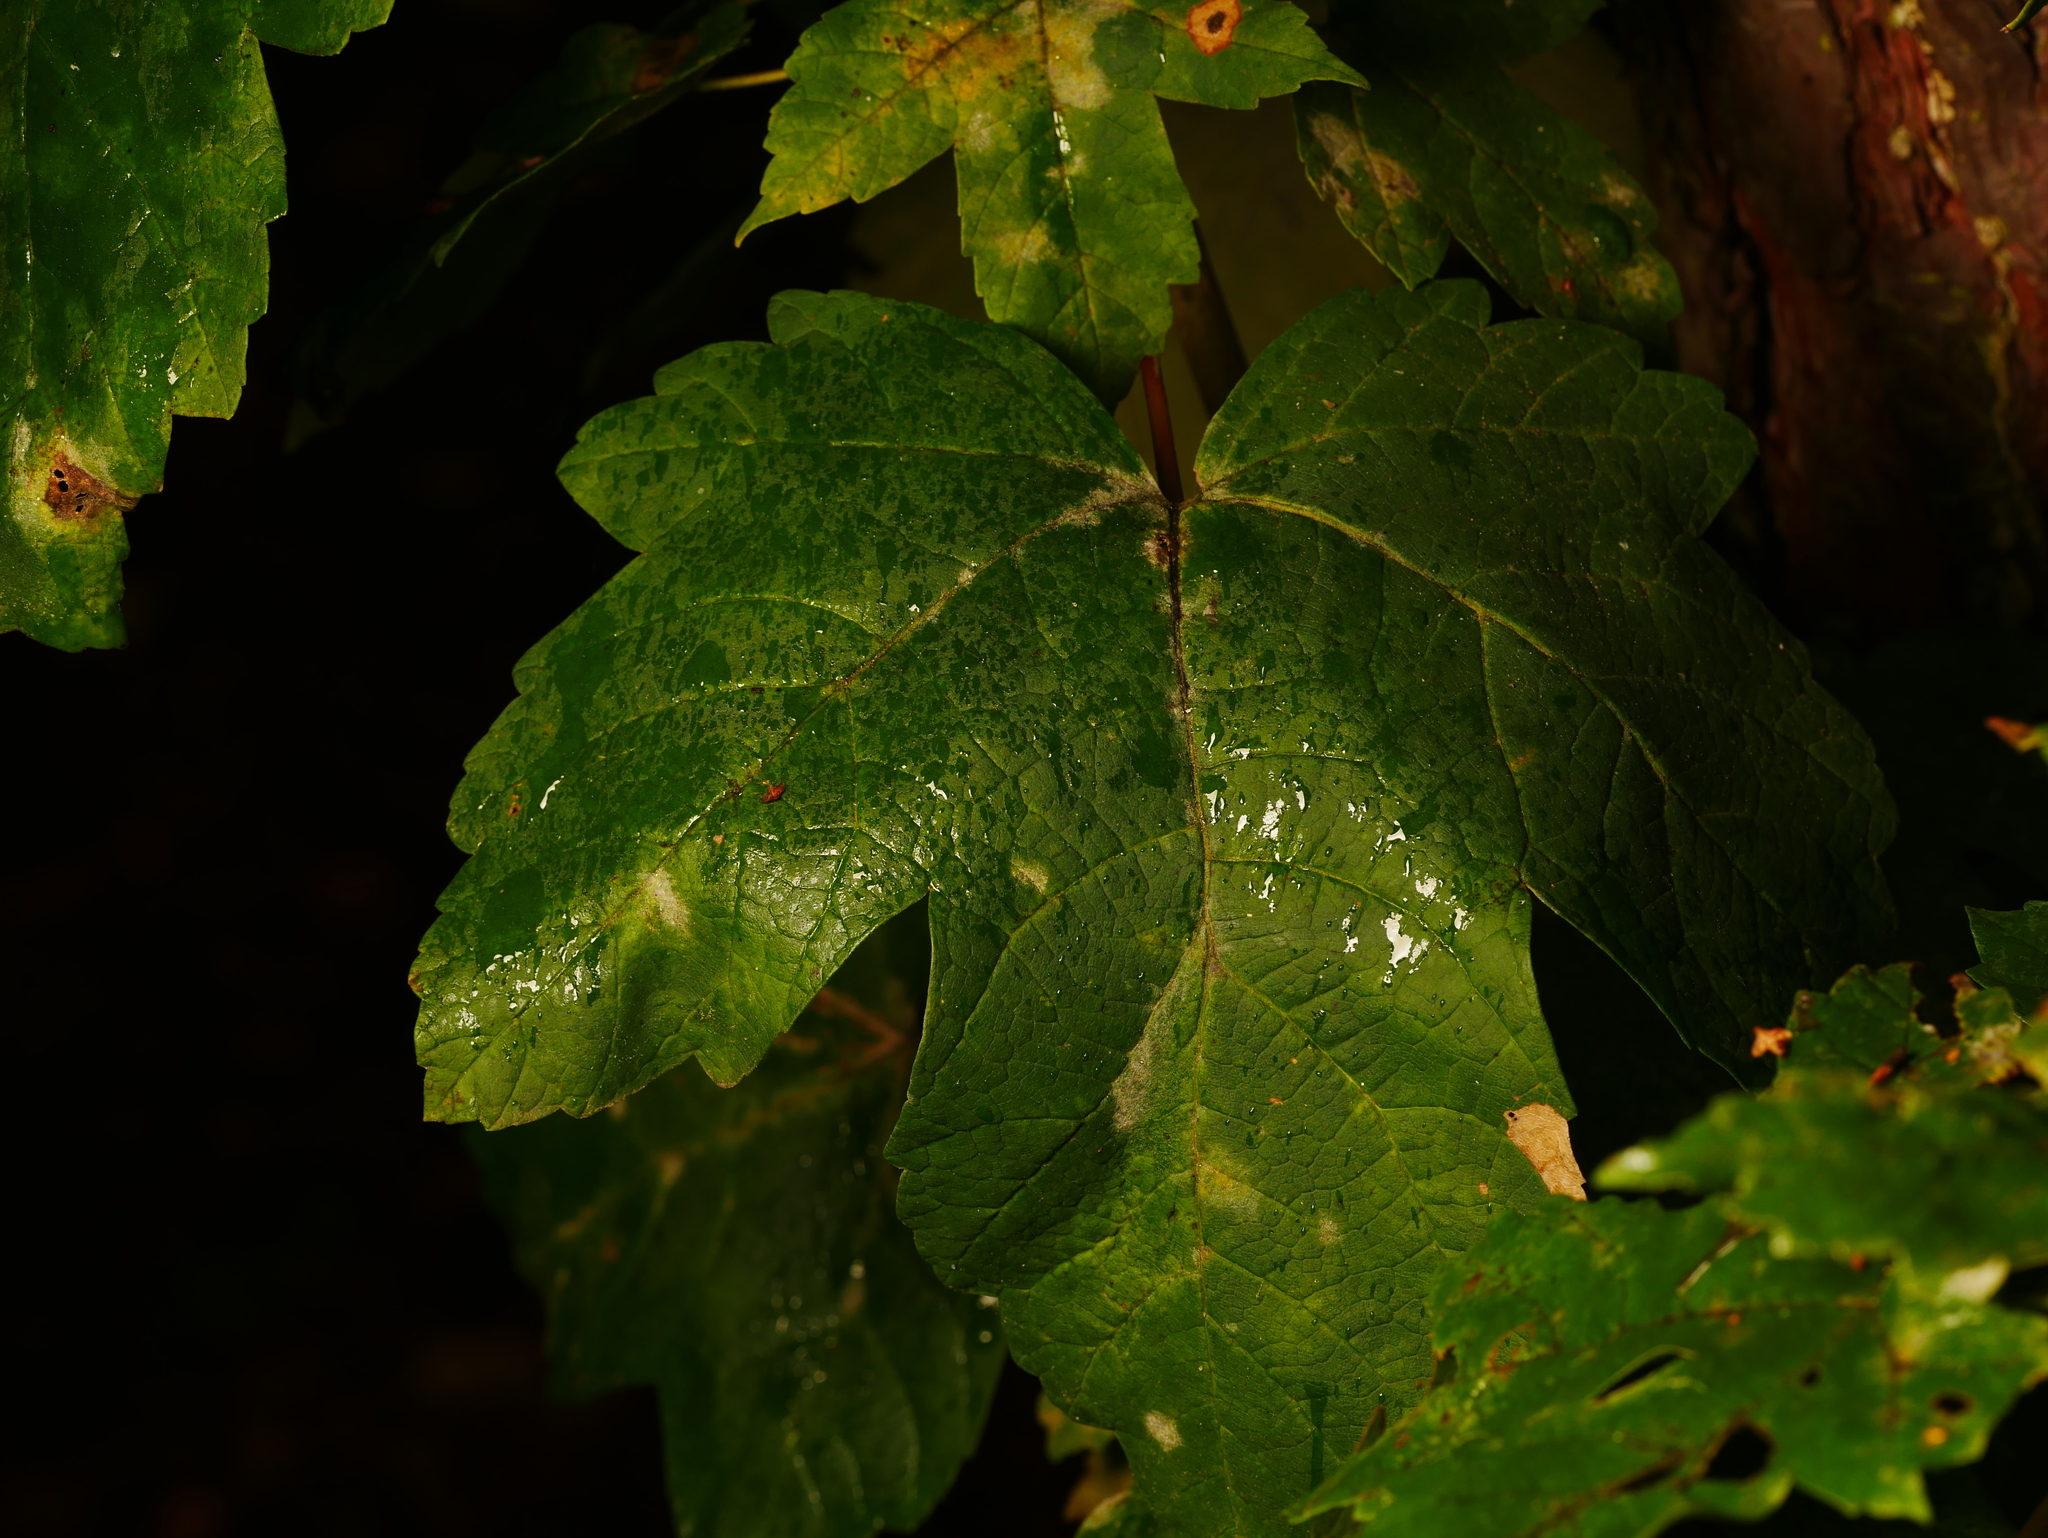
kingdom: Plantae
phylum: Tracheophyta
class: Magnoliopsida
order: Sapindales
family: Sapindaceae
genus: Acer
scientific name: Acer pseudoplatanus
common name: Sycamore
